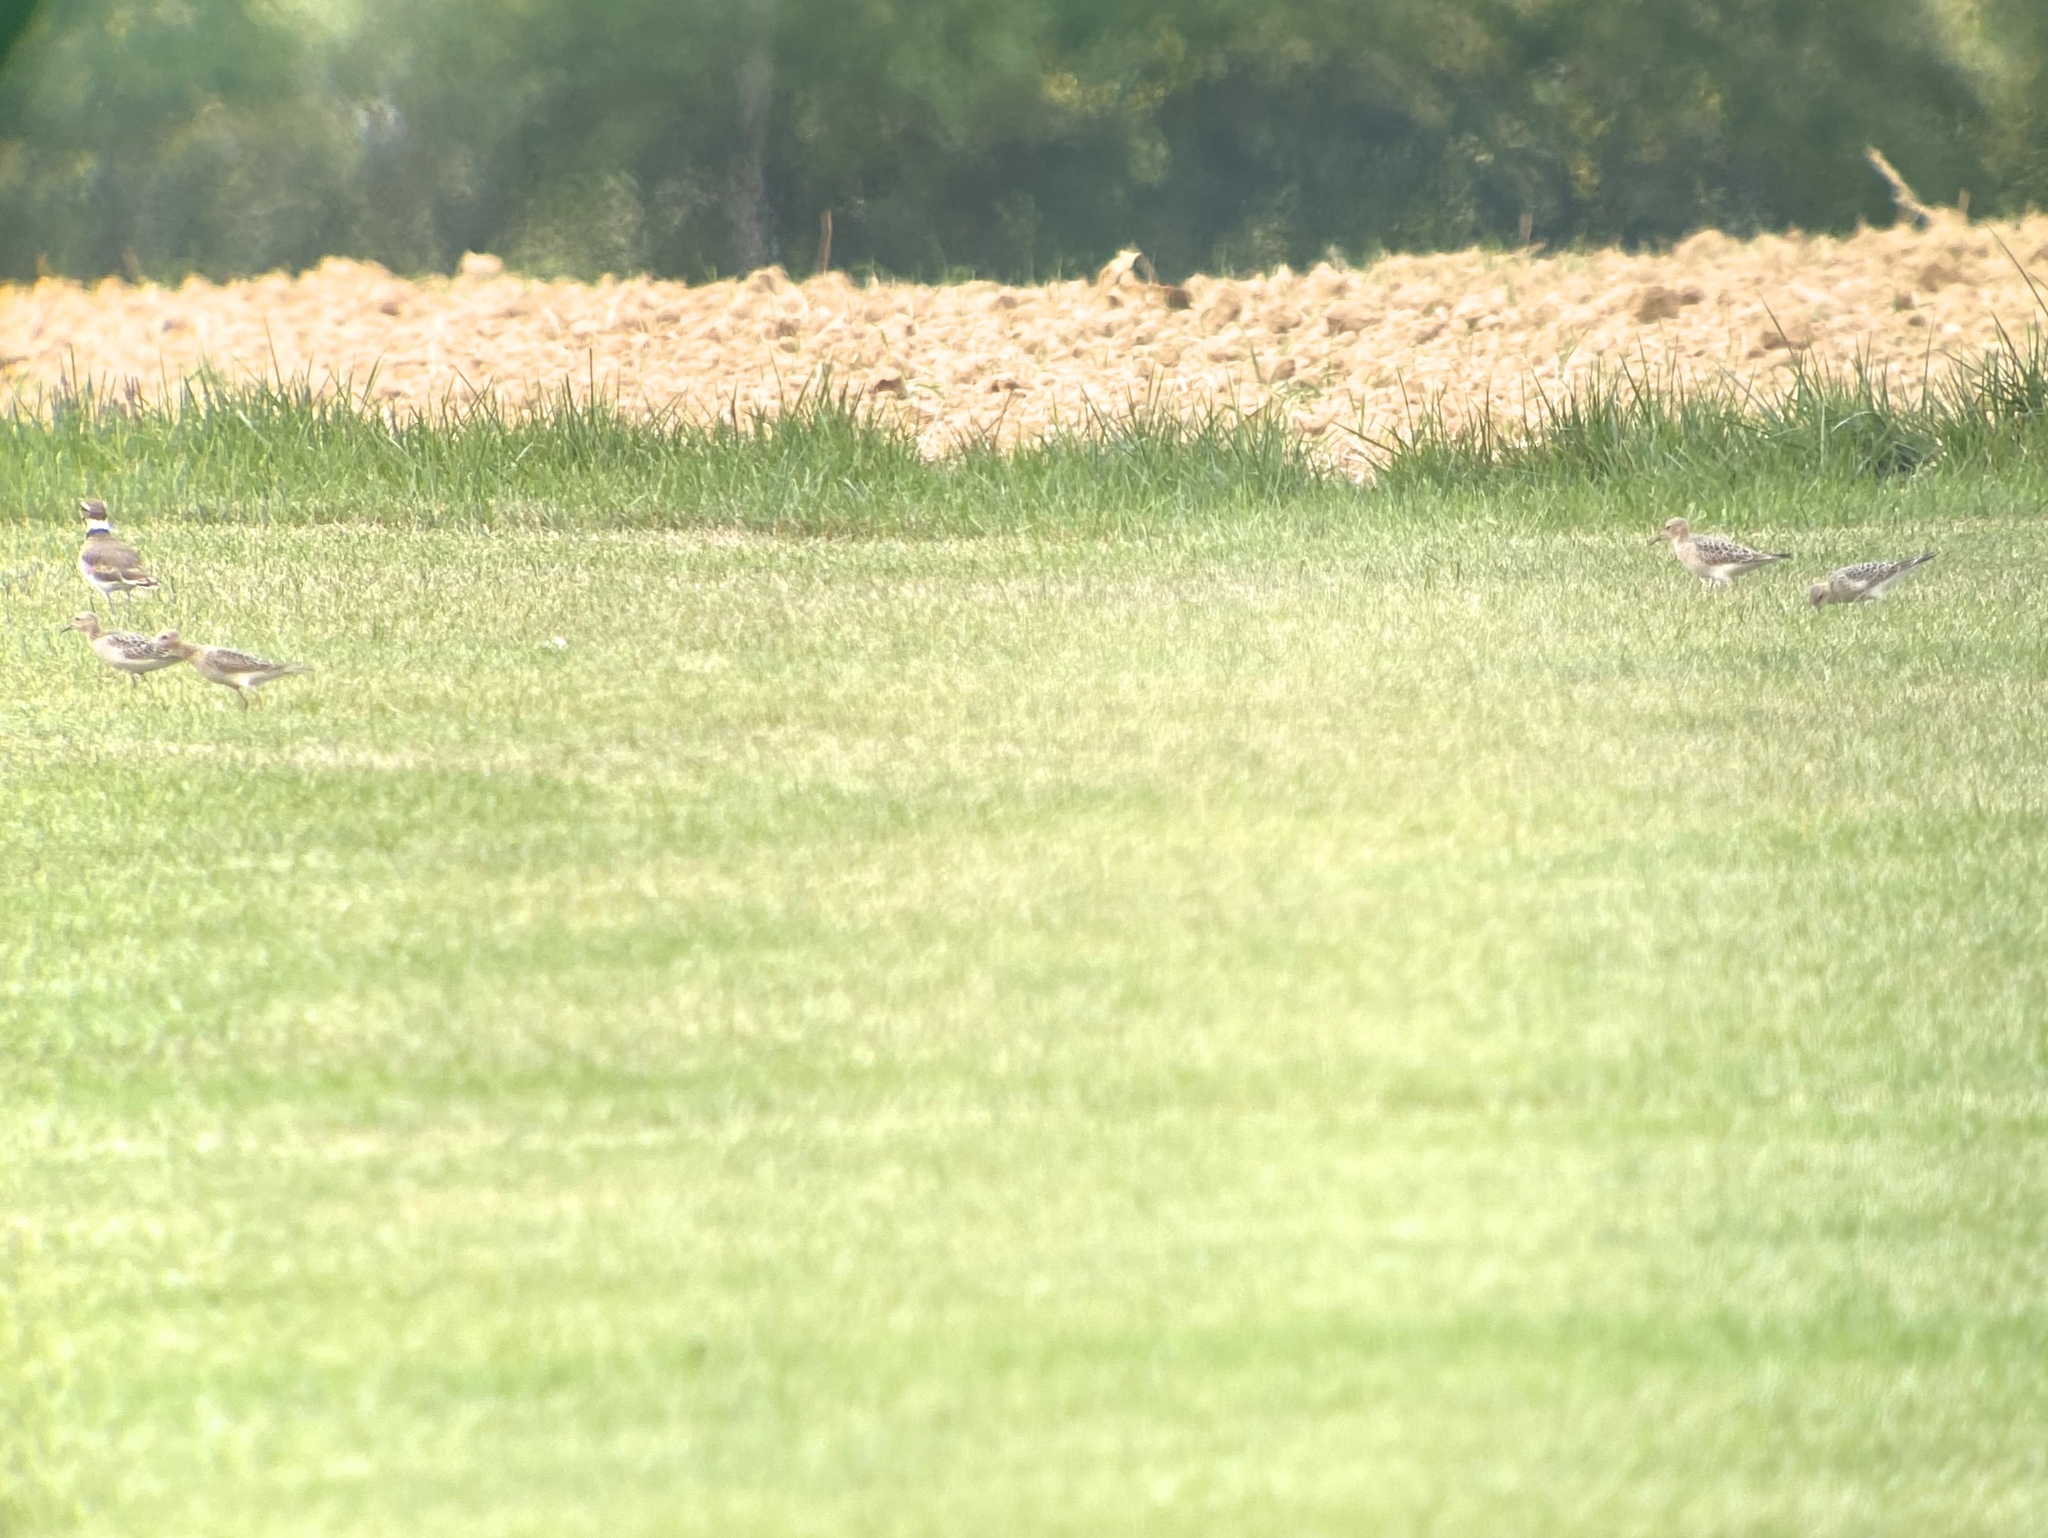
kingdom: Animalia
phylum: Chordata
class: Aves
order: Charadriiformes
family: Scolopacidae
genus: Calidris
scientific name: Calidris subruficollis
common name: Buff-breasted sandpiper
